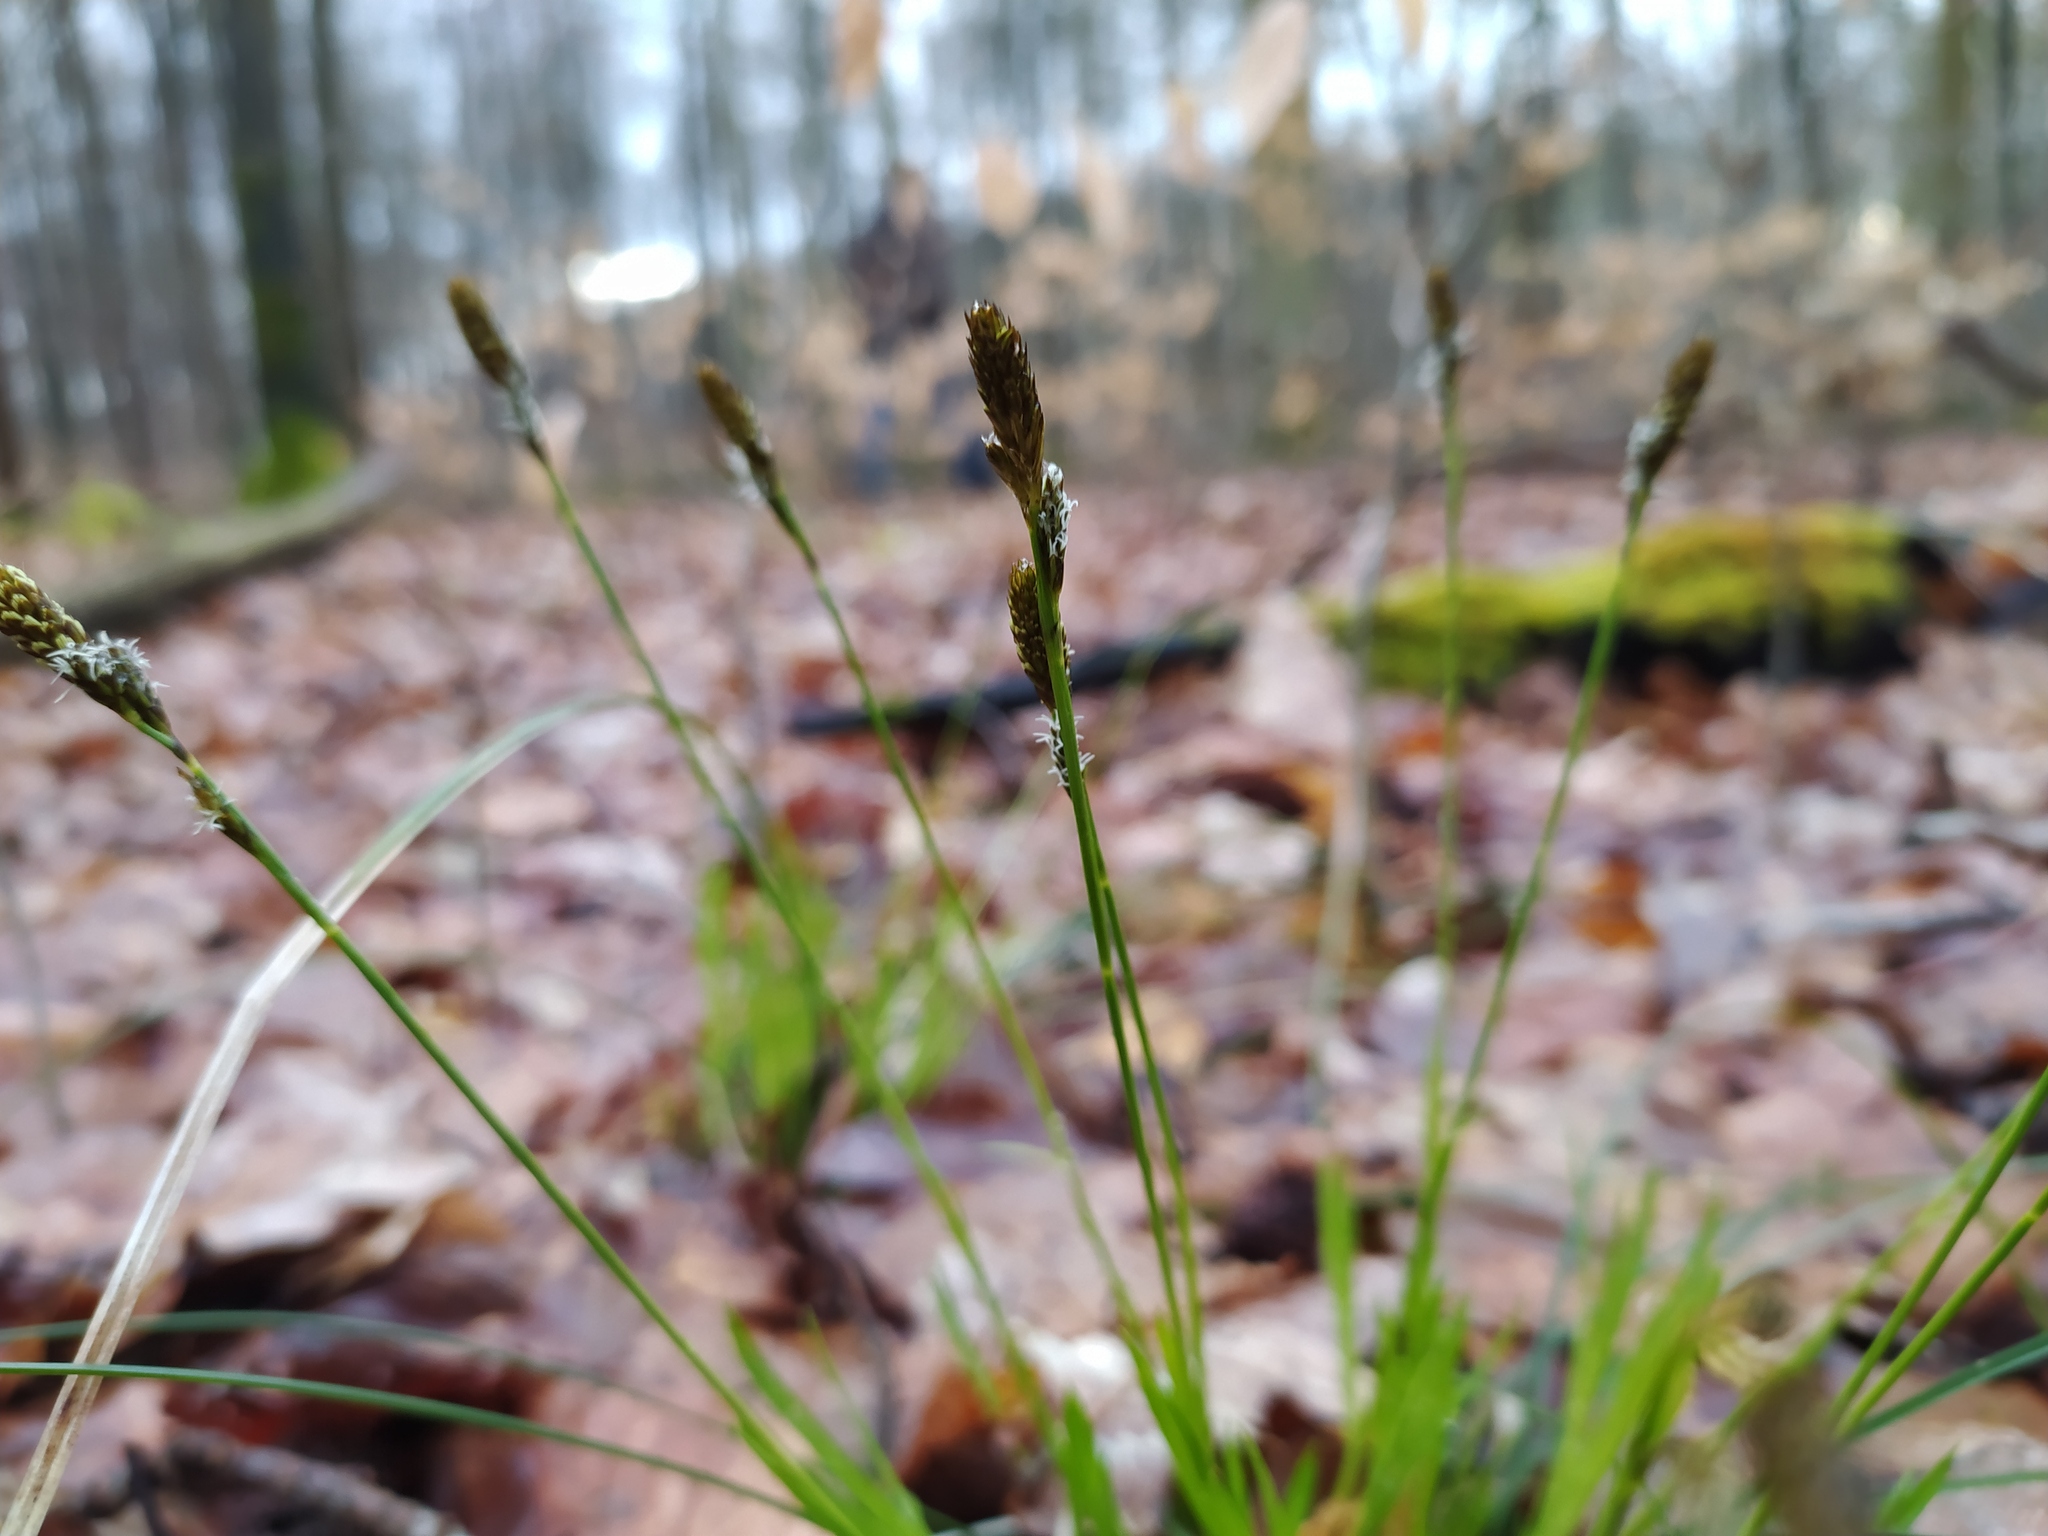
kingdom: Plantae
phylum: Tracheophyta
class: Liliopsida
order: Poales
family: Cyperaceae
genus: Carex
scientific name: Carex umbrosa
